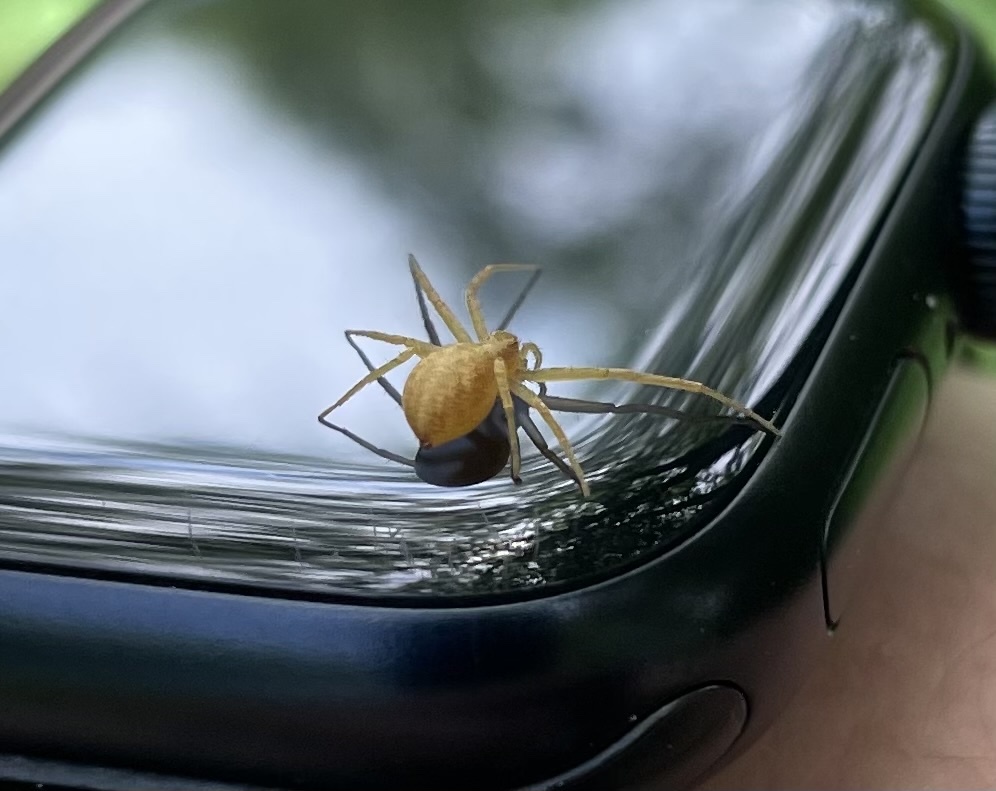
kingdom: Animalia
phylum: Arthropoda
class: Arachnida
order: Araneae
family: Philodromidae
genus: Philodromus
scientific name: Philodromus rufus
